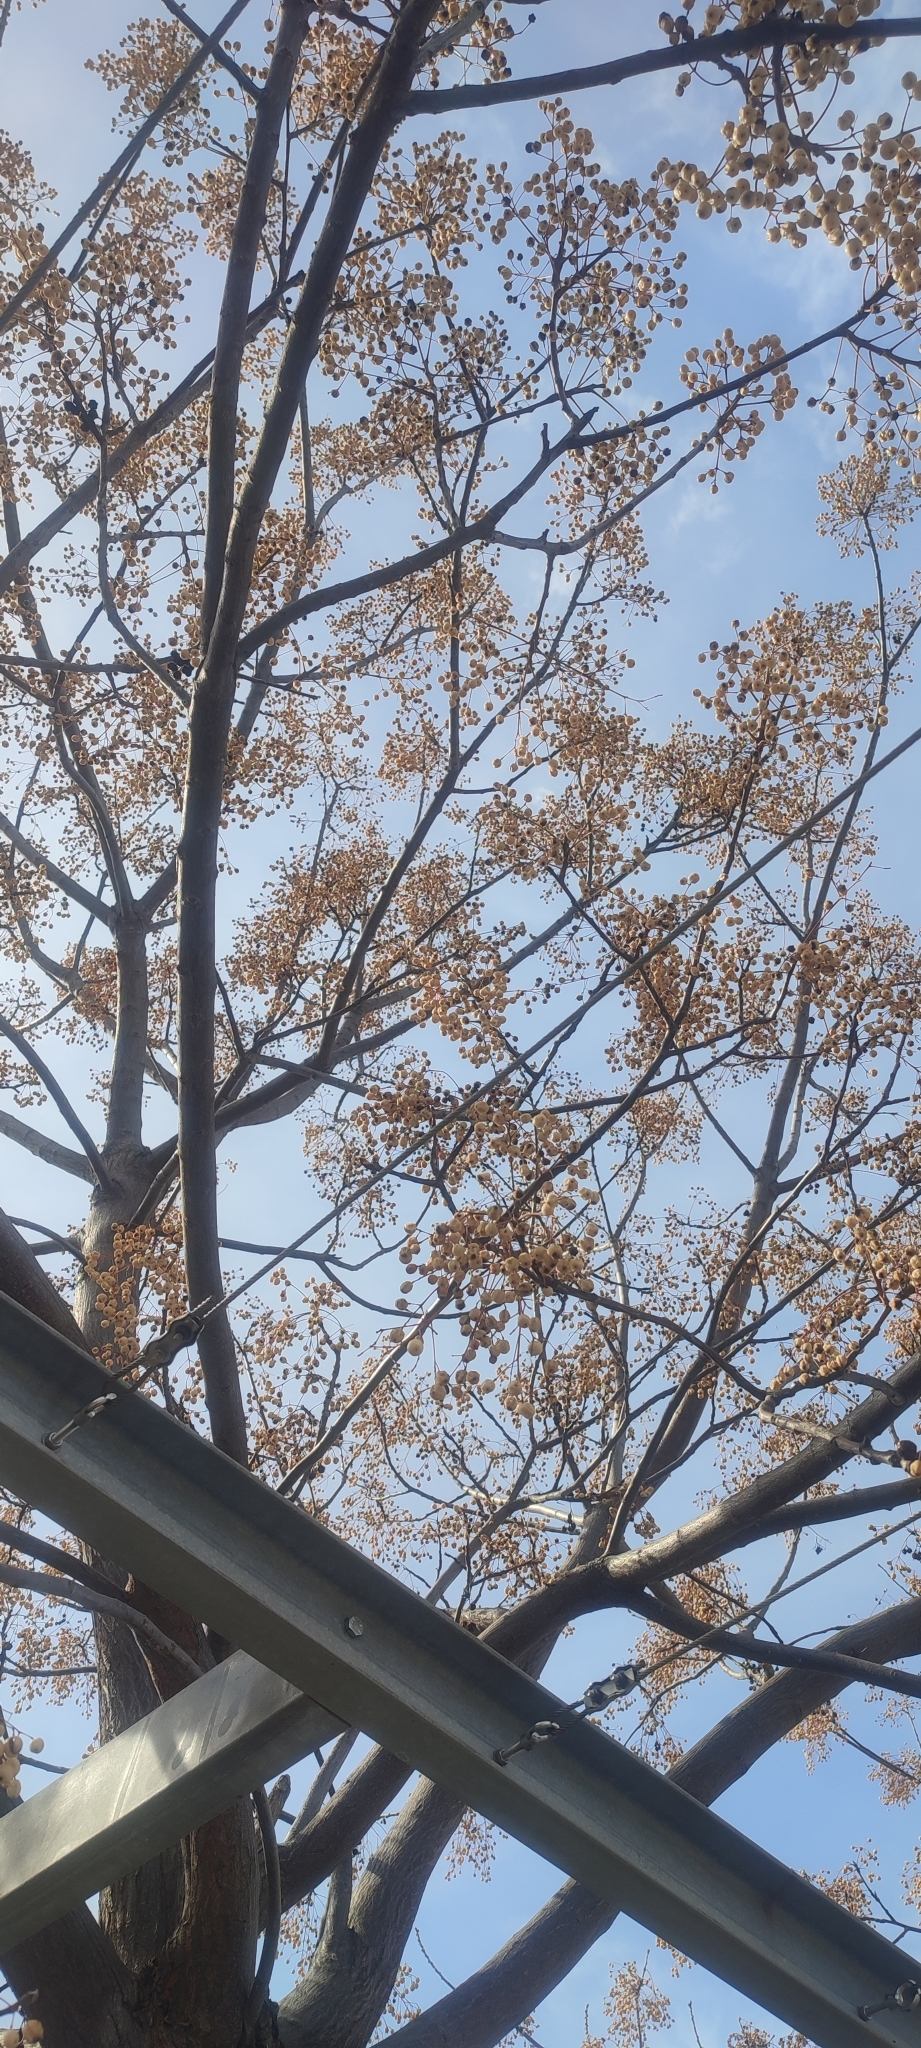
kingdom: Plantae
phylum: Tracheophyta
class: Magnoliopsida
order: Sapindales
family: Meliaceae
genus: Melia
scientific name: Melia azedarach
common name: Chinaberrytree
